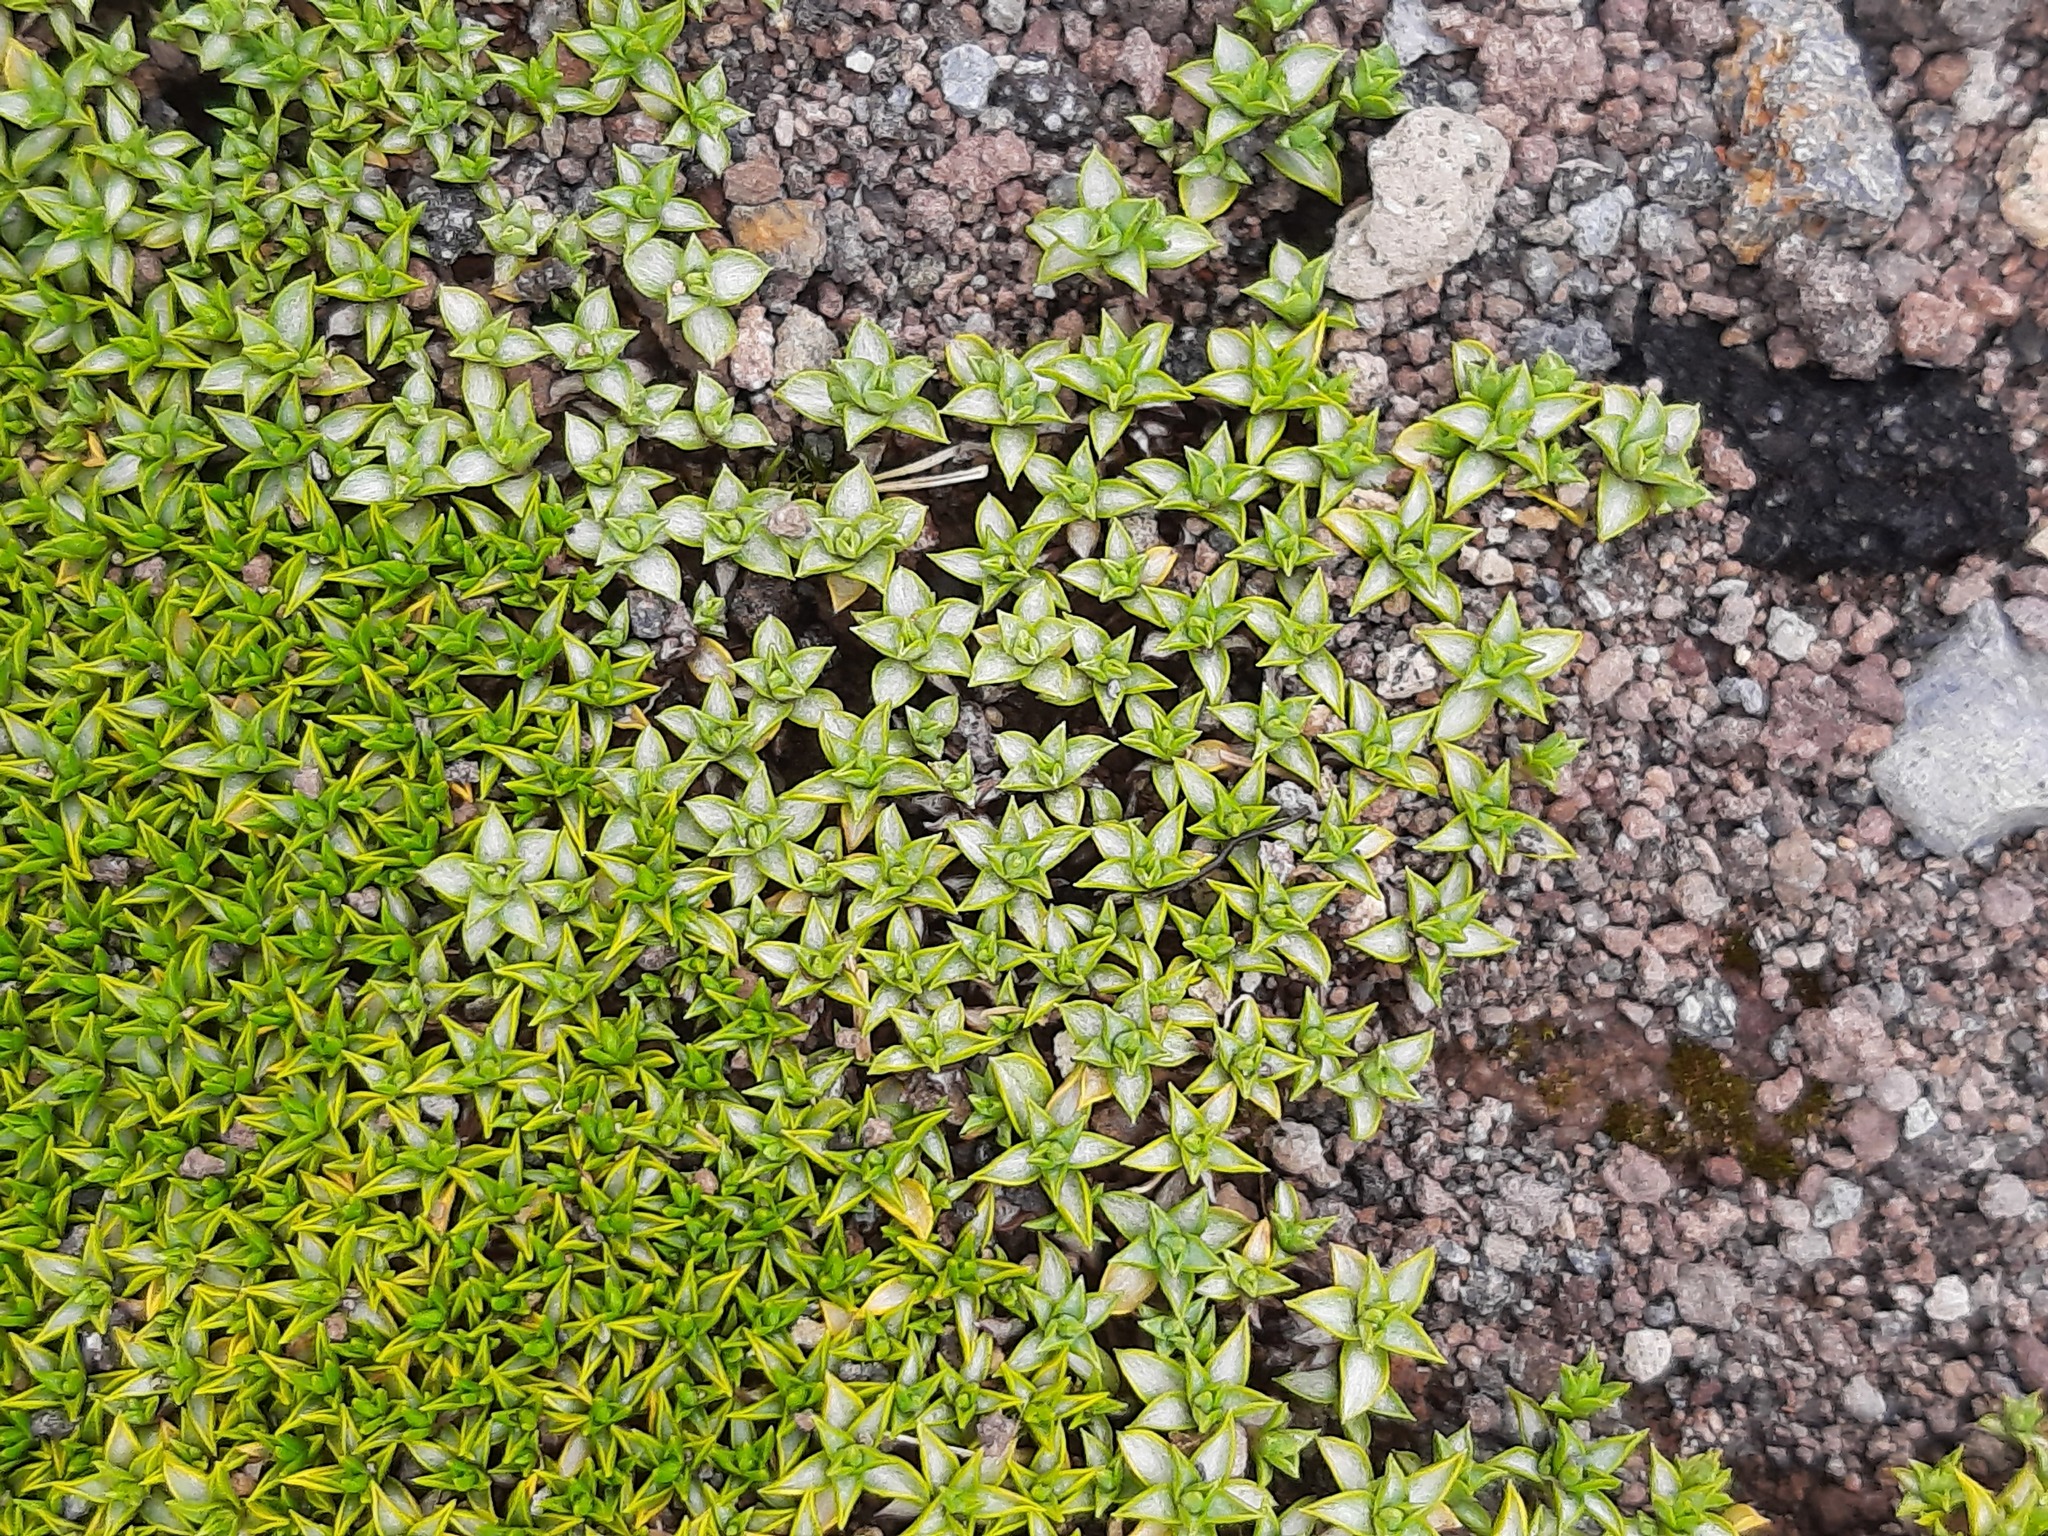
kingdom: Plantae
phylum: Tracheophyta
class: Magnoliopsida
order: Asterales
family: Asteraceae
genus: Raoulia
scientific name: Raoulia tenuicaulis
